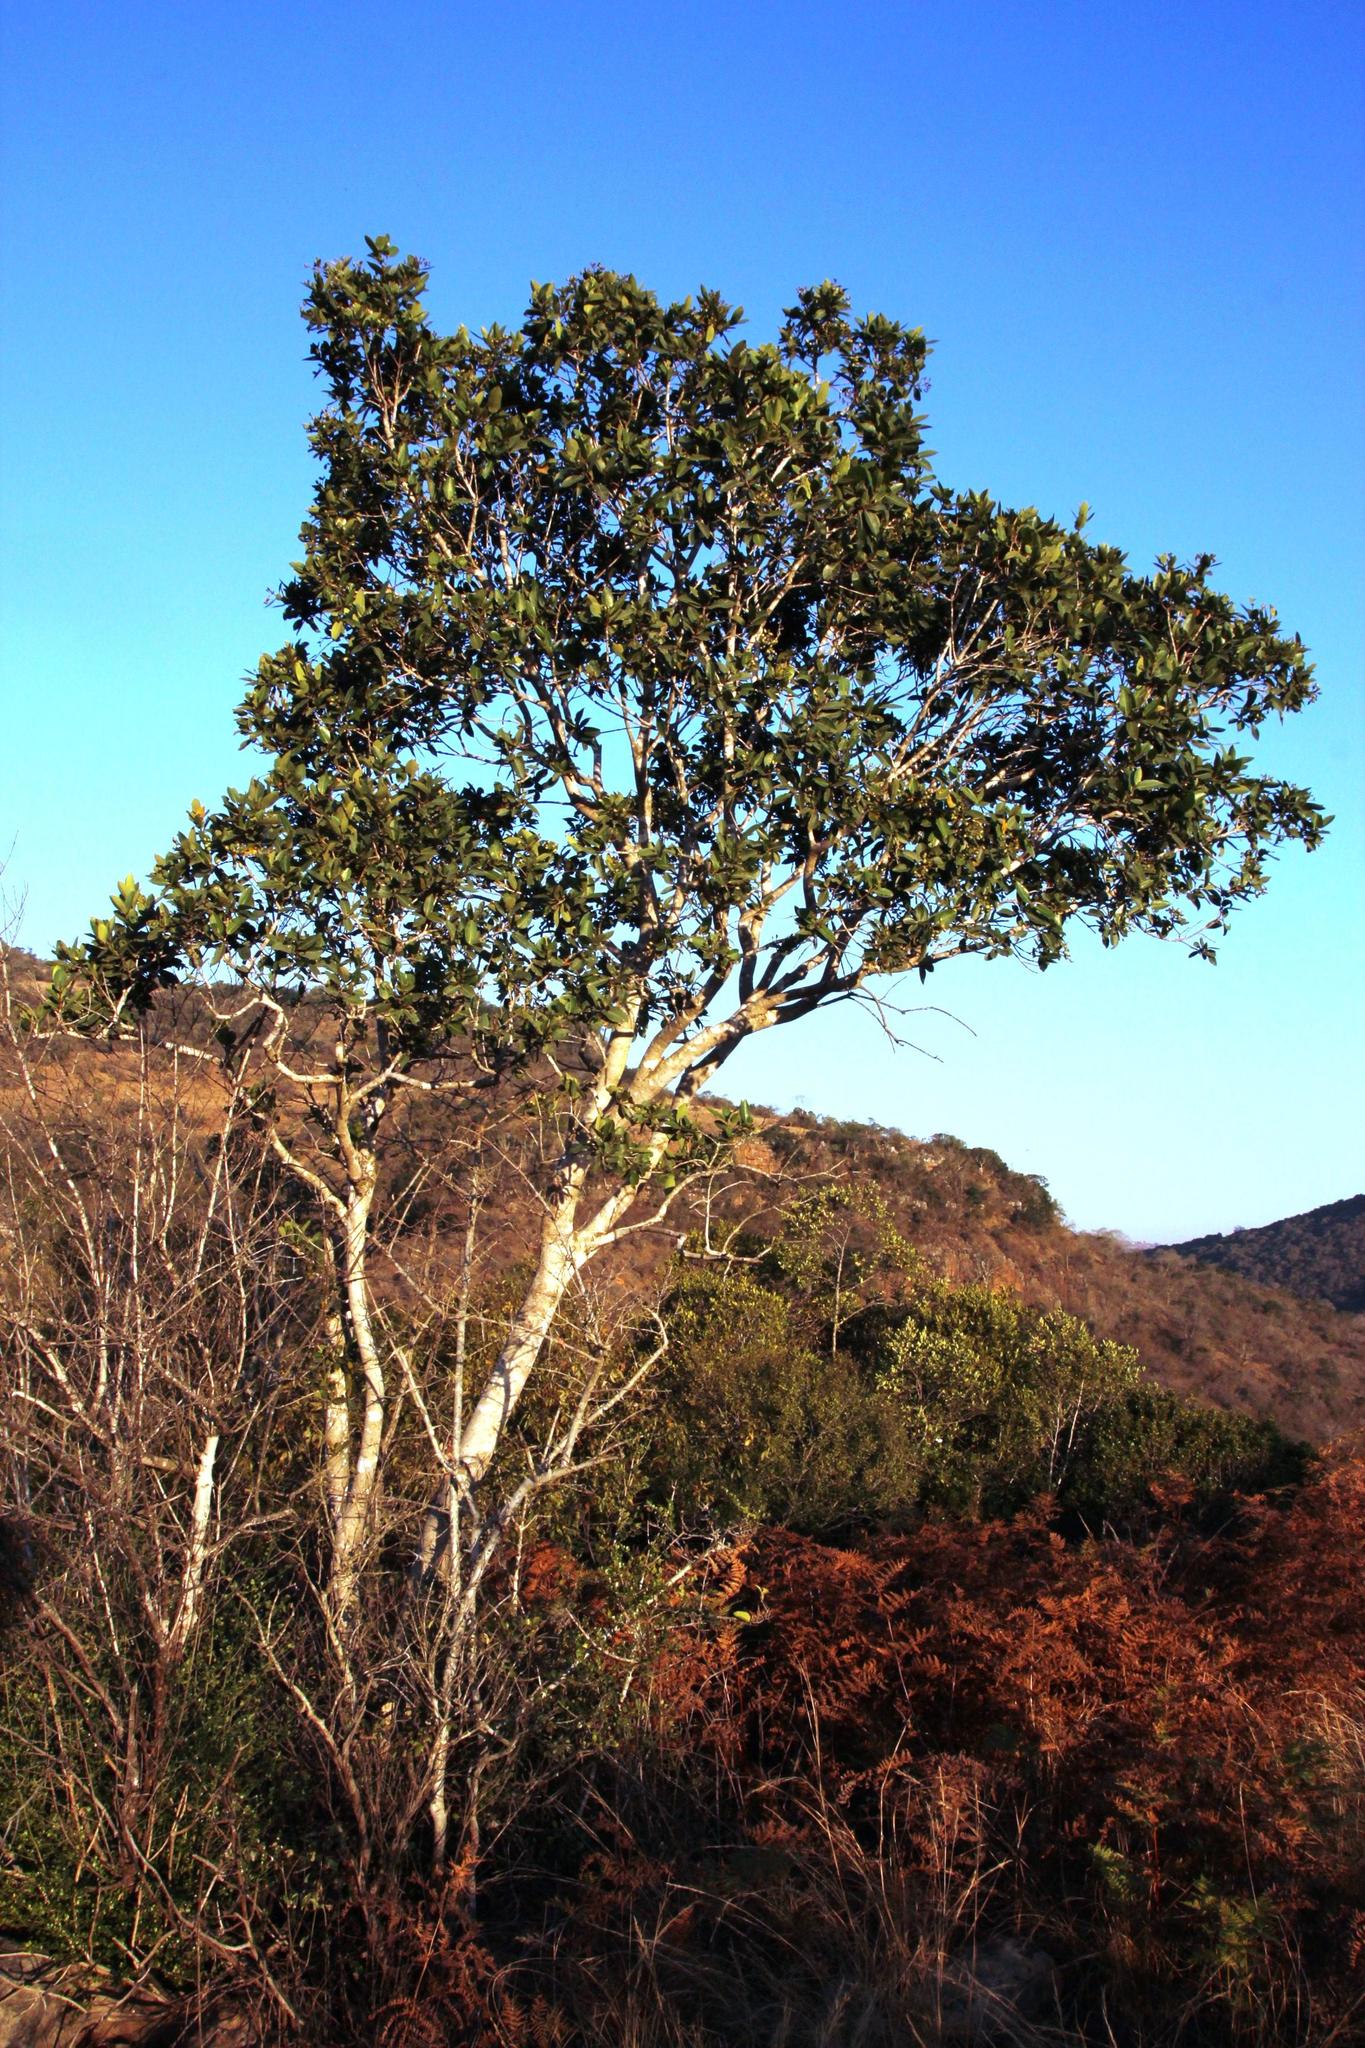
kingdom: Plantae
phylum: Tracheophyta
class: Magnoliopsida
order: Myrtales
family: Myrtaceae
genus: Syzygium
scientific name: Syzygium guineense
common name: Water-pear
